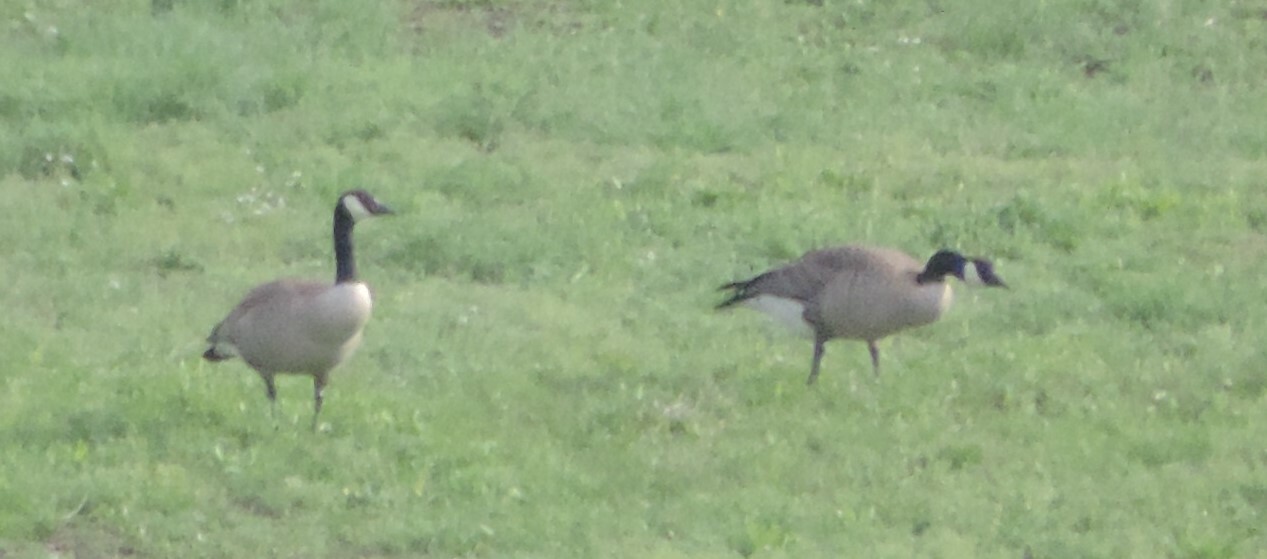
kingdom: Animalia
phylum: Chordata
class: Aves
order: Anseriformes
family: Anatidae
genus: Branta
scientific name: Branta canadensis
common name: Canada goose
